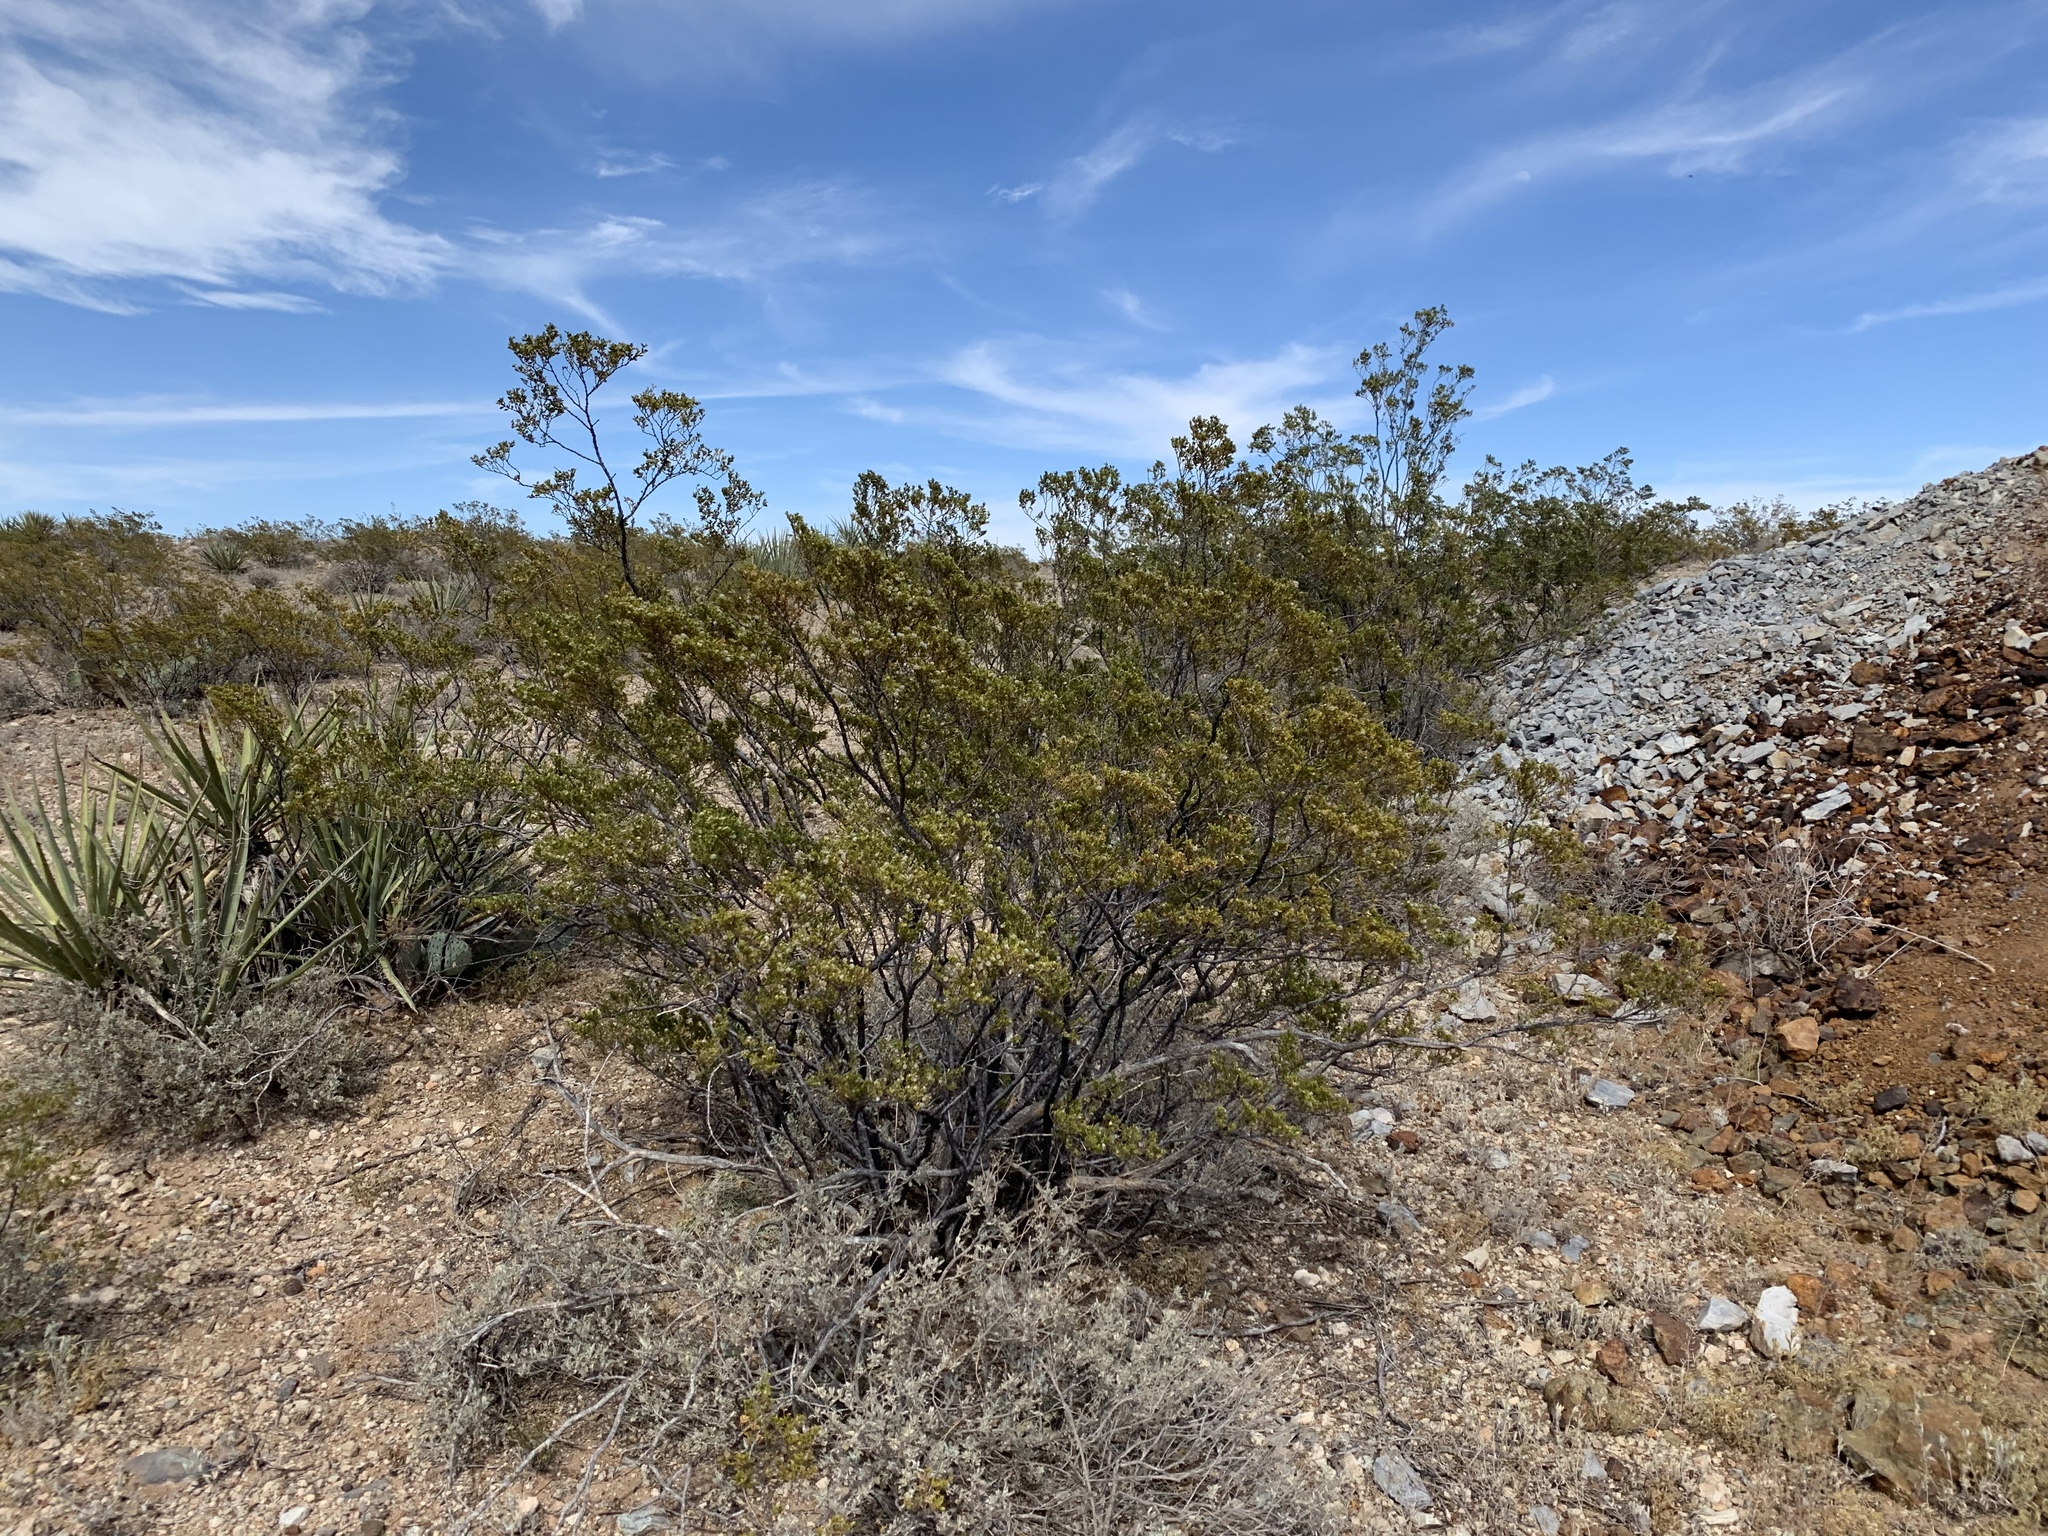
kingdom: Plantae
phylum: Tracheophyta
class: Magnoliopsida
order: Zygophyllales
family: Zygophyllaceae
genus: Larrea
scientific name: Larrea tridentata
